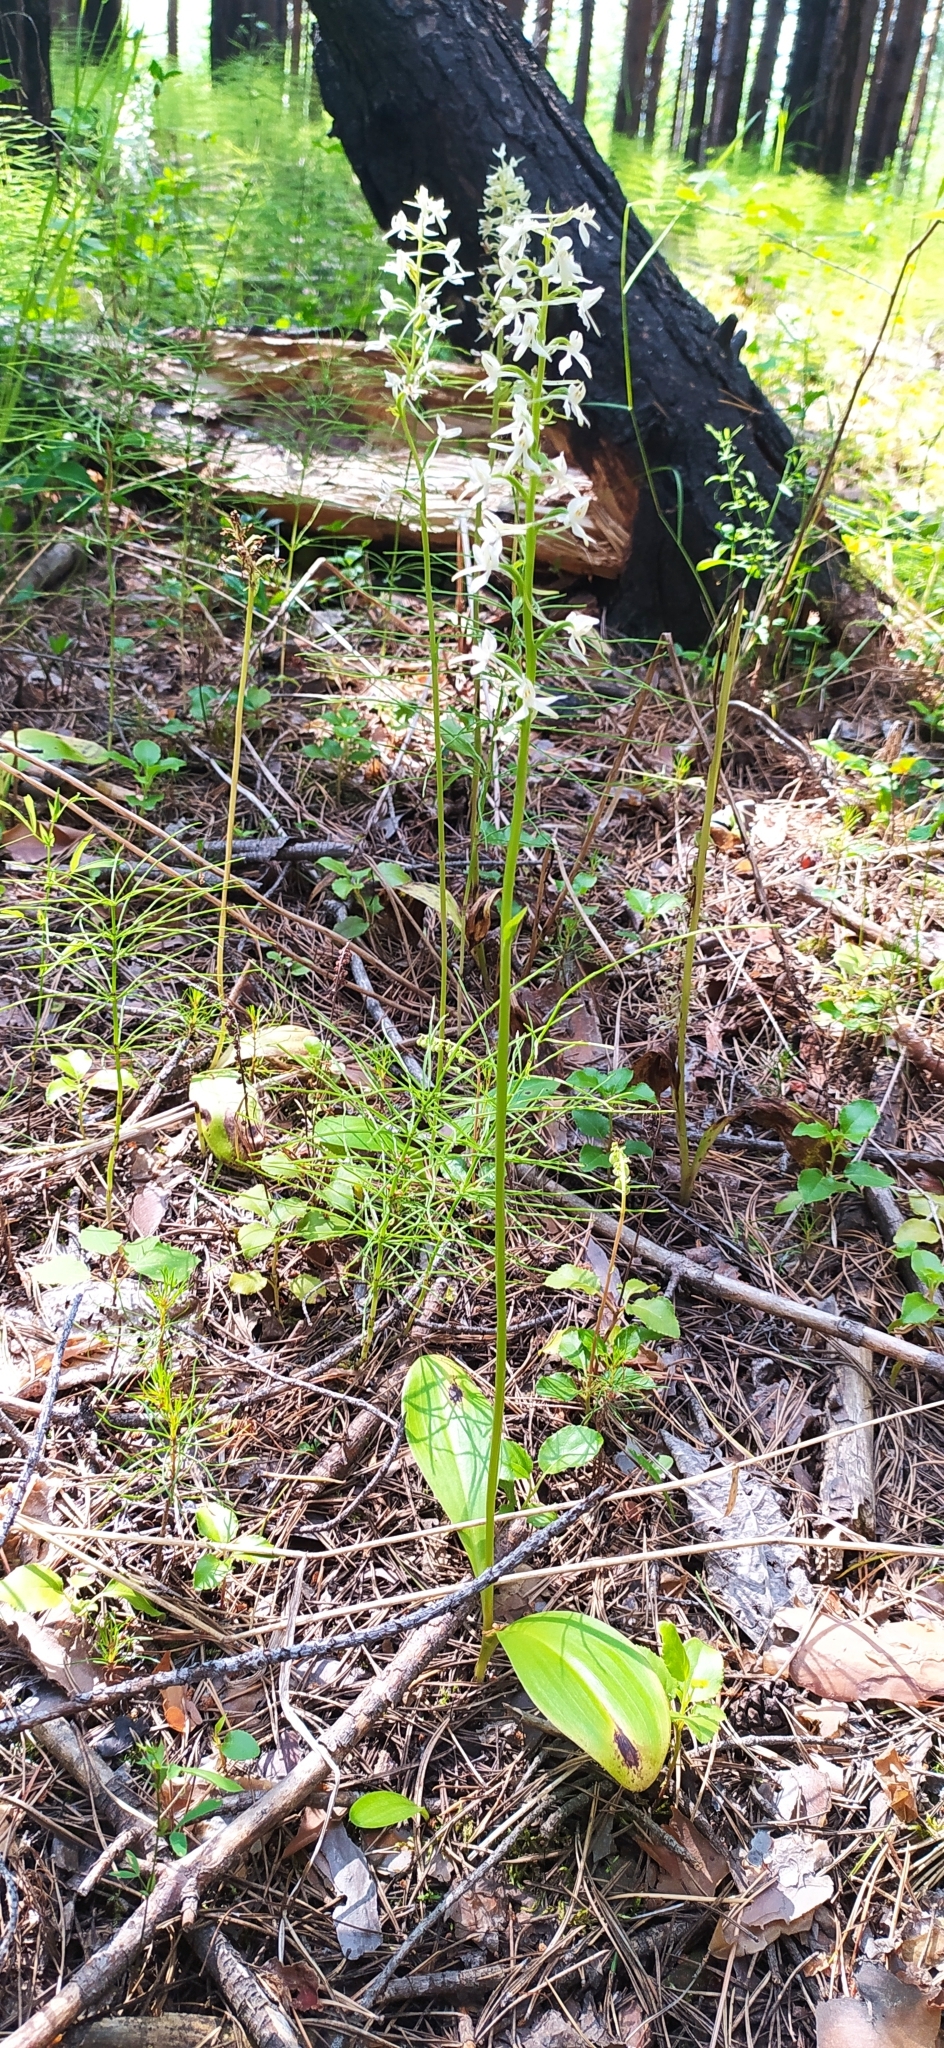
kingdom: Plantae
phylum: Tracheophyta
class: Liliopsida
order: Asparagales
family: Orchidaceae
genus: Platanthera
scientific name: Platanthera bifolia
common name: Lesser butterfly-orchid
